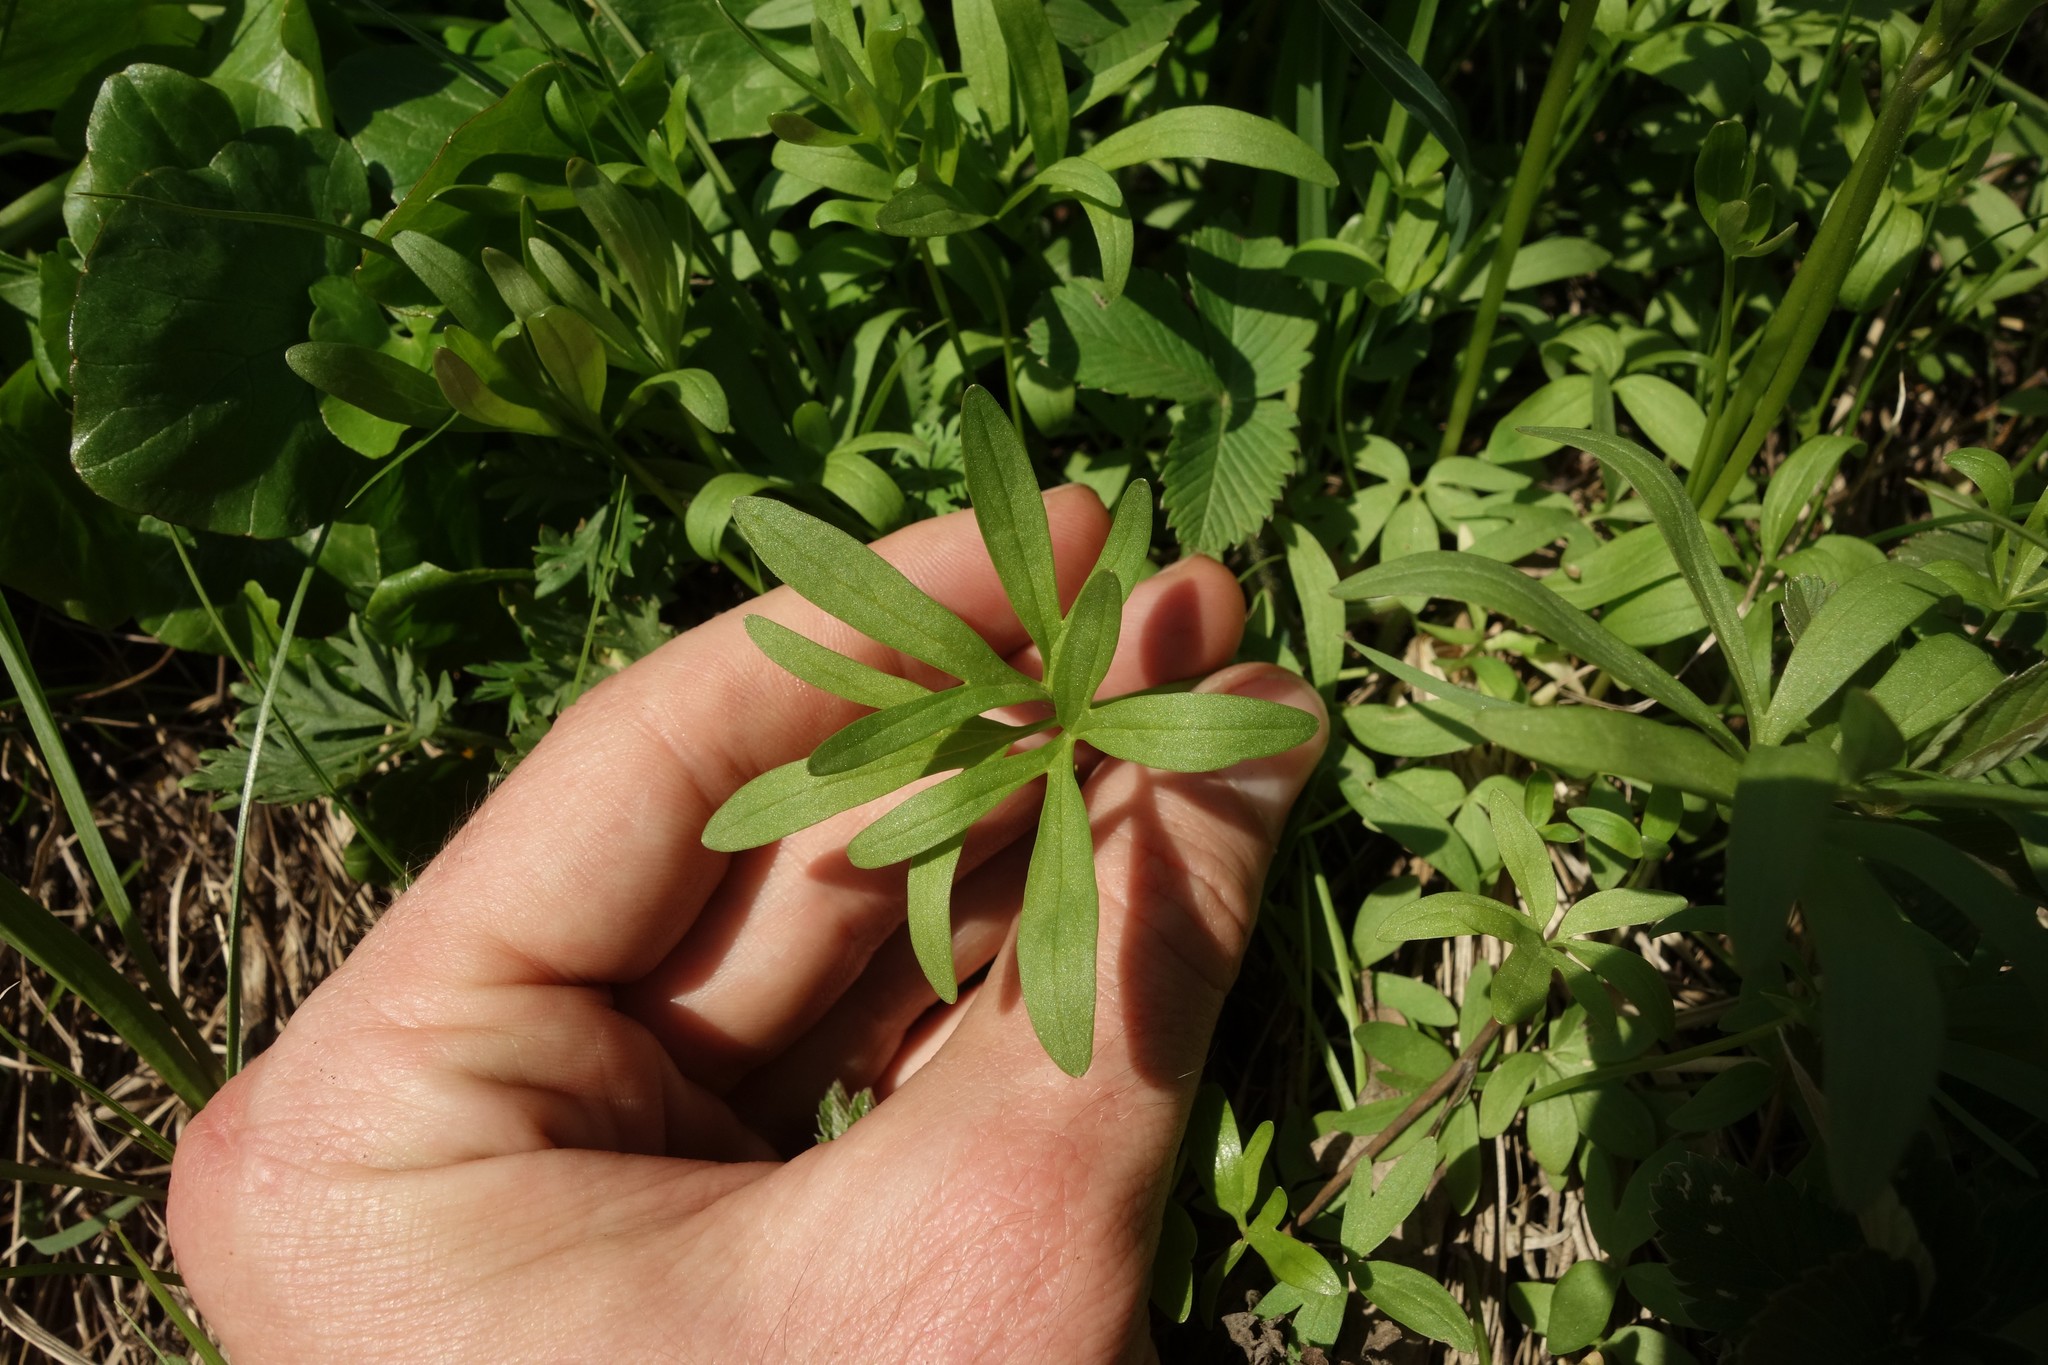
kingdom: Plantae
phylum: Tracheophyta
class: Magnoliopsida
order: Ranunculales
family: Ranunculaceae
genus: Ranunculus
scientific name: Ranunculus pedatus
